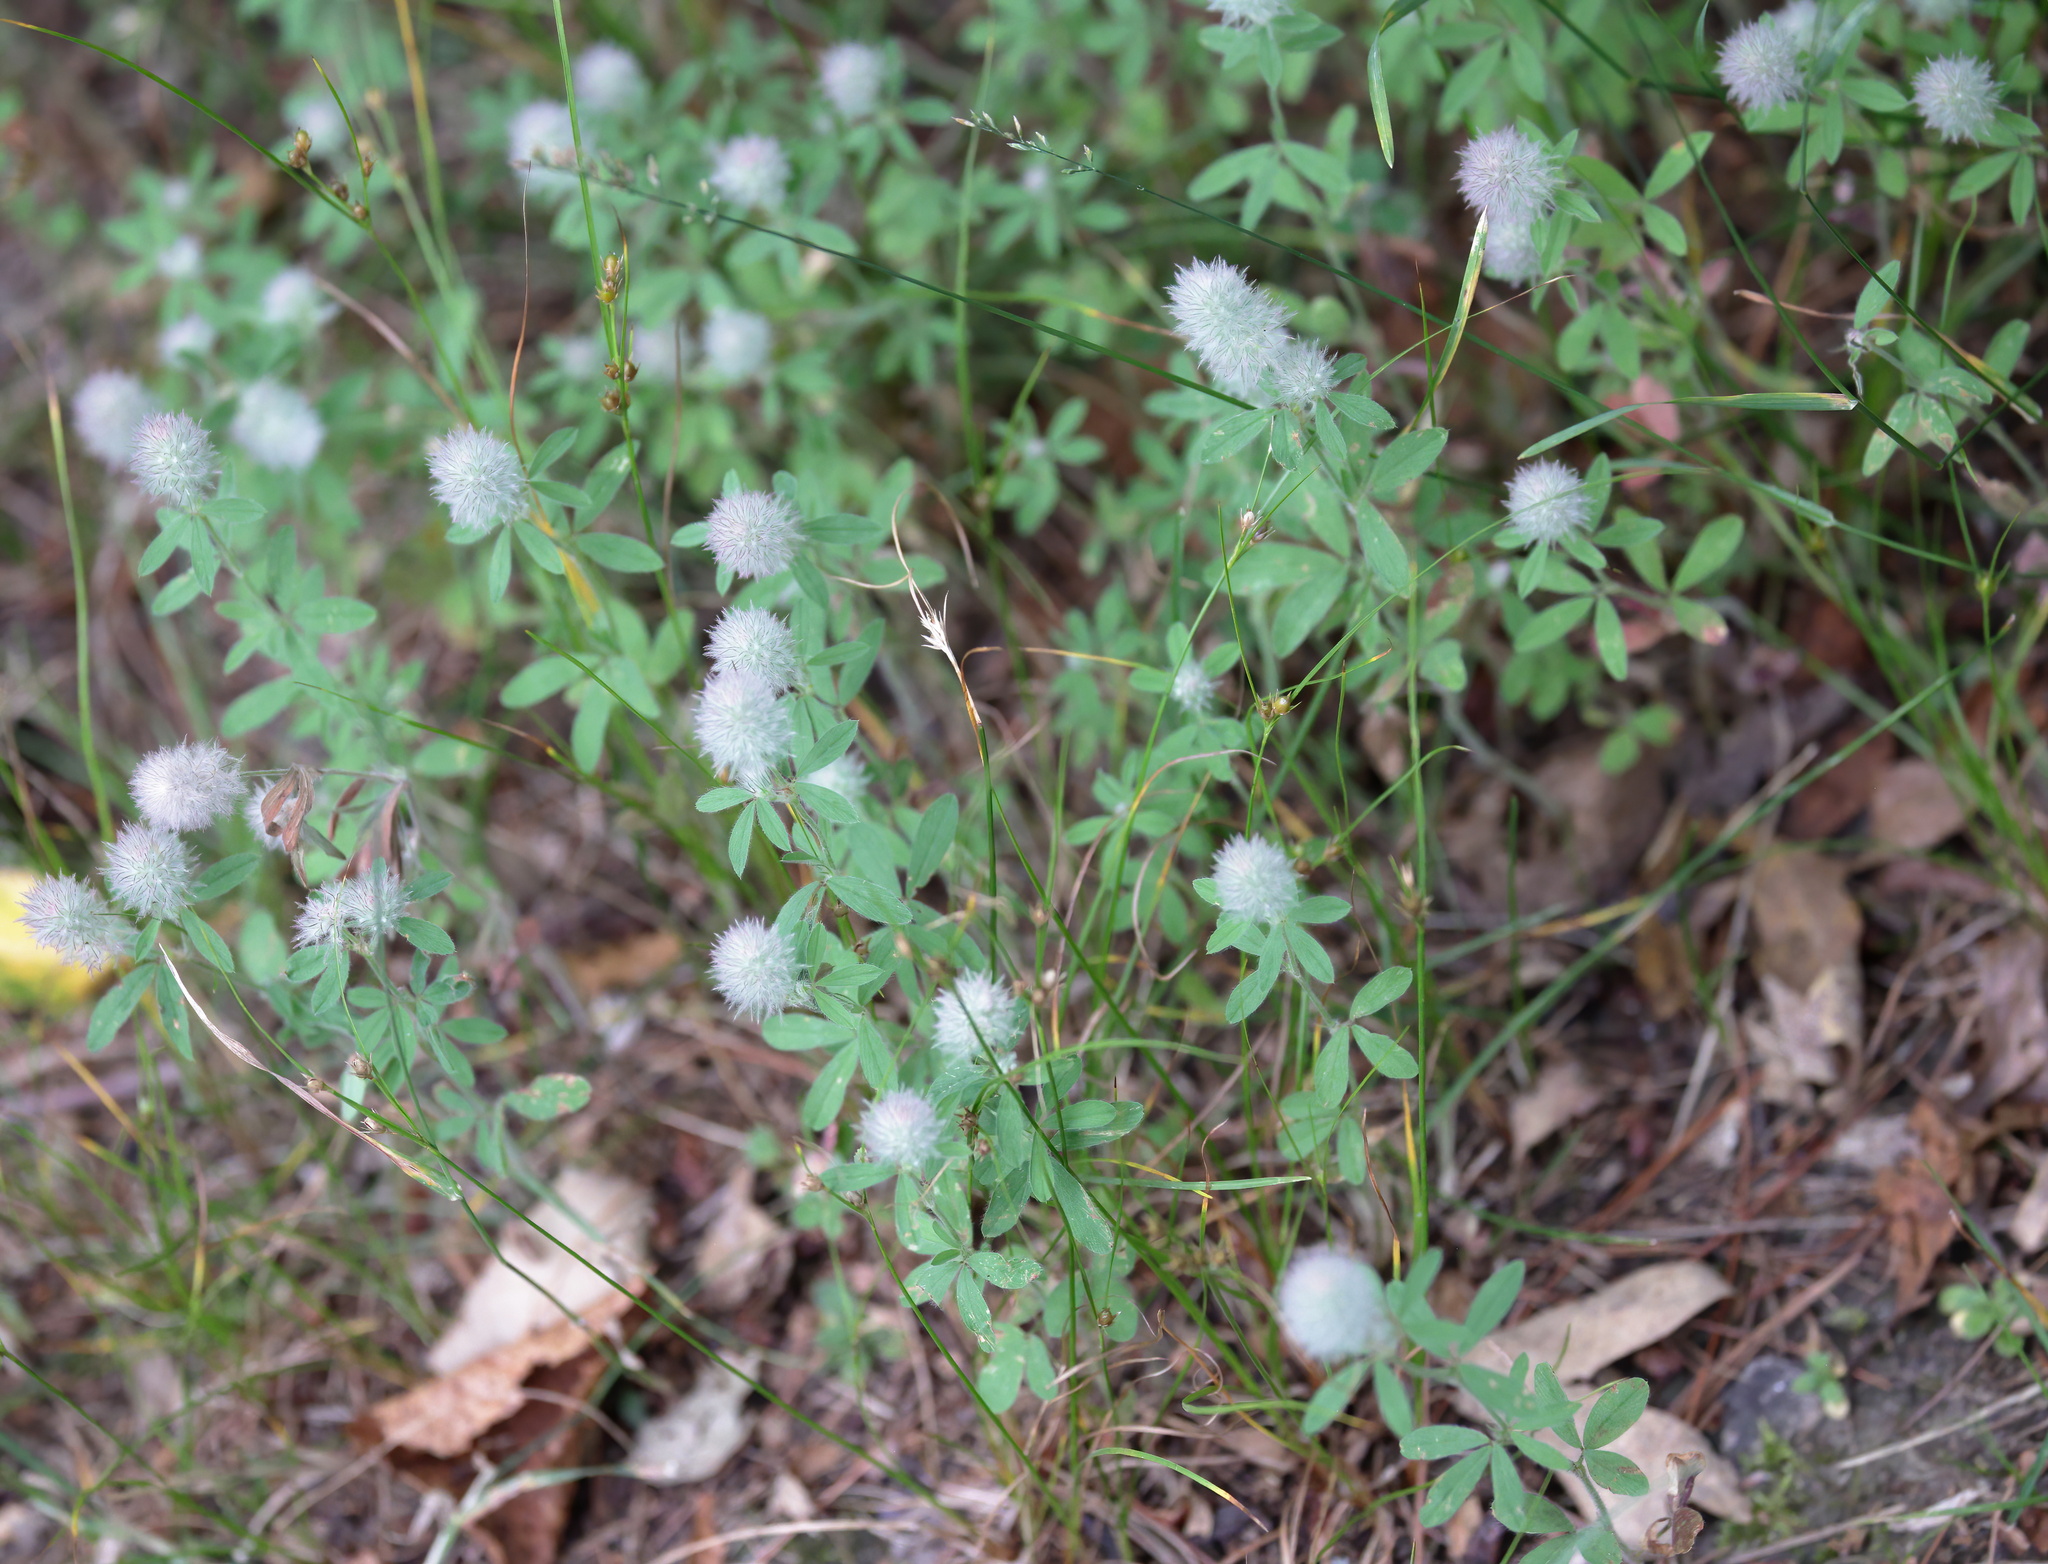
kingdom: Plantae
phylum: Tracheophyta
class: Magnoliopsida
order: Fabales
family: Fabaceae
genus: Trifolium
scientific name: Trifolium arvense
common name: Hare's-foot clover
